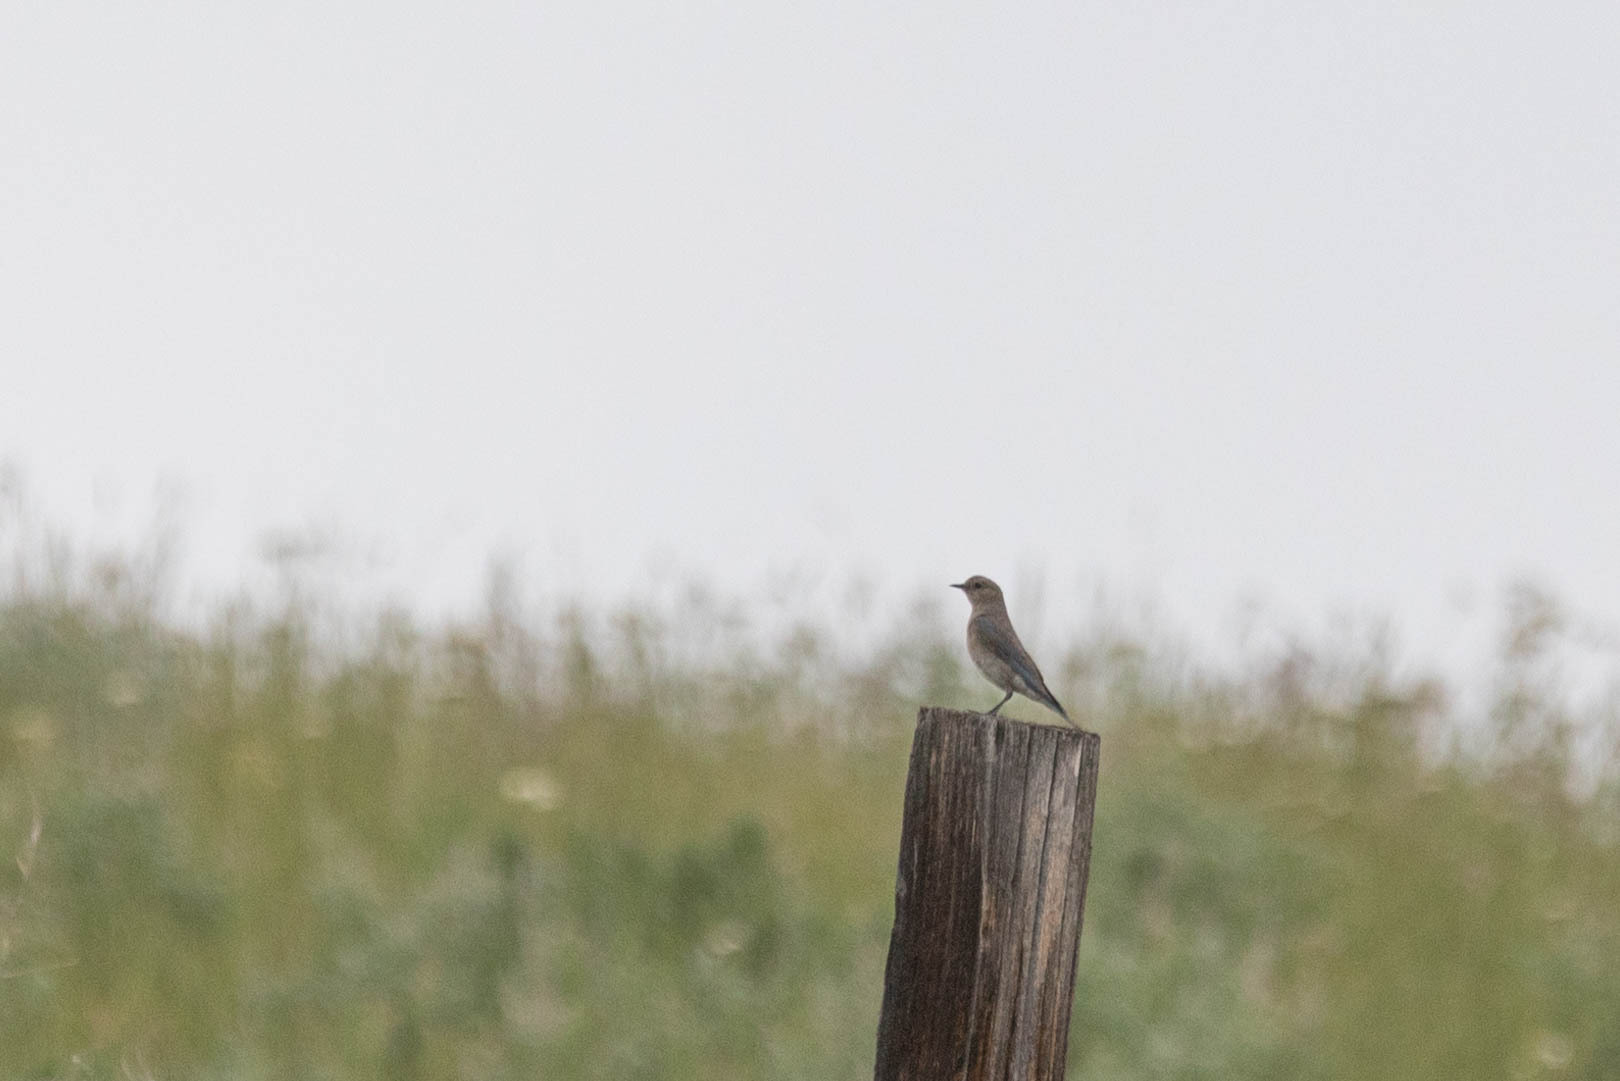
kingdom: Animalia
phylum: Chordata
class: Aves
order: Passeriformes
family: Turdidae
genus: Sialia
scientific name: Sialia currucoides
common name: Mountain bluebird
